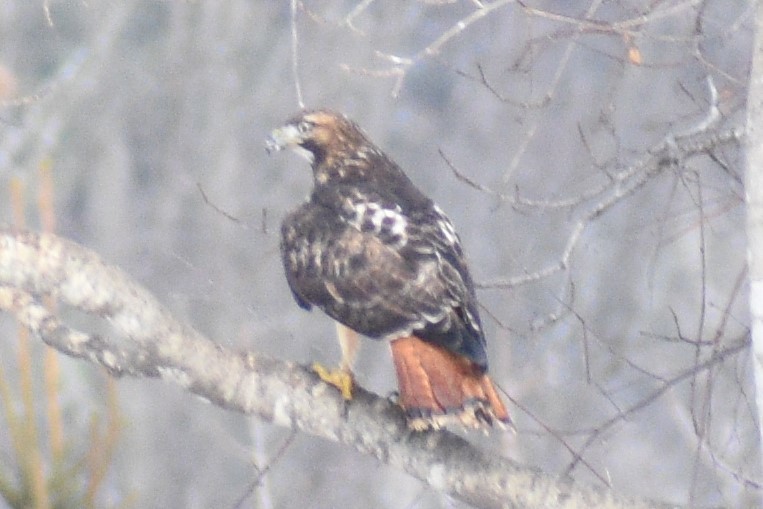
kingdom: Animalia
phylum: Chordata
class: Aves
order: Accipitriformes
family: Accipitridae
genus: Buteo
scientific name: Buteo jamaicensis
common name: Red-tailed hawk
